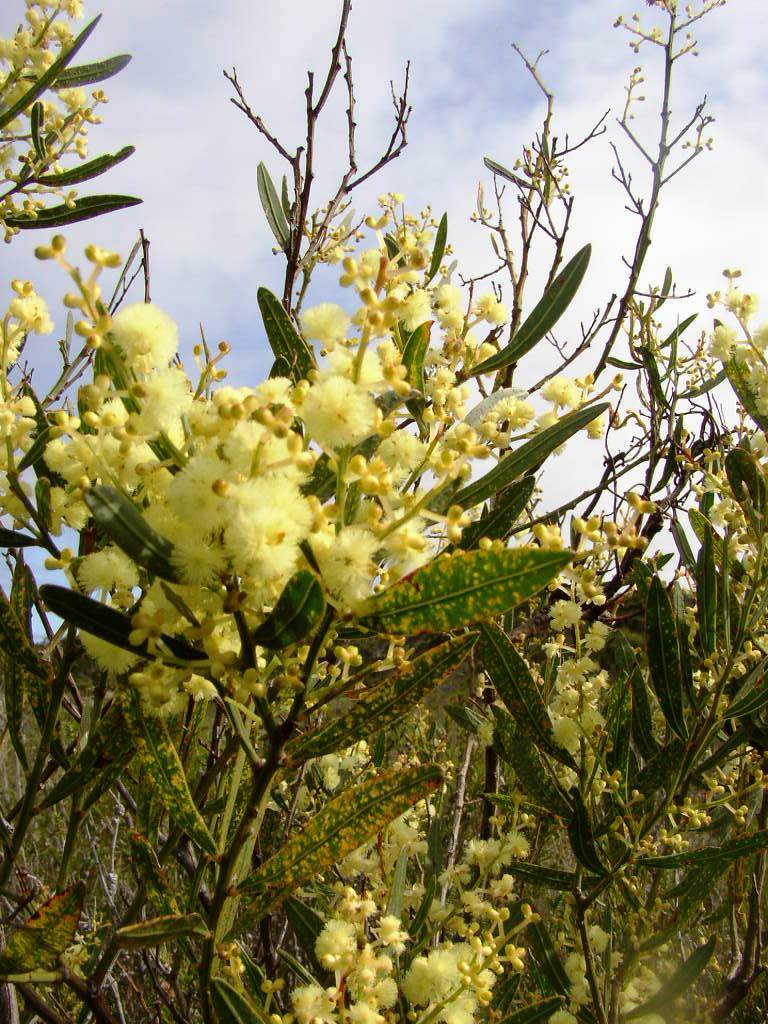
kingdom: Plantae
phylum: Tracheophyta
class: Magnoliopsida
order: Fabales
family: Fabaceae
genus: Acacia
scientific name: Acacia myrtifolia
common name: Myrtle wattle
